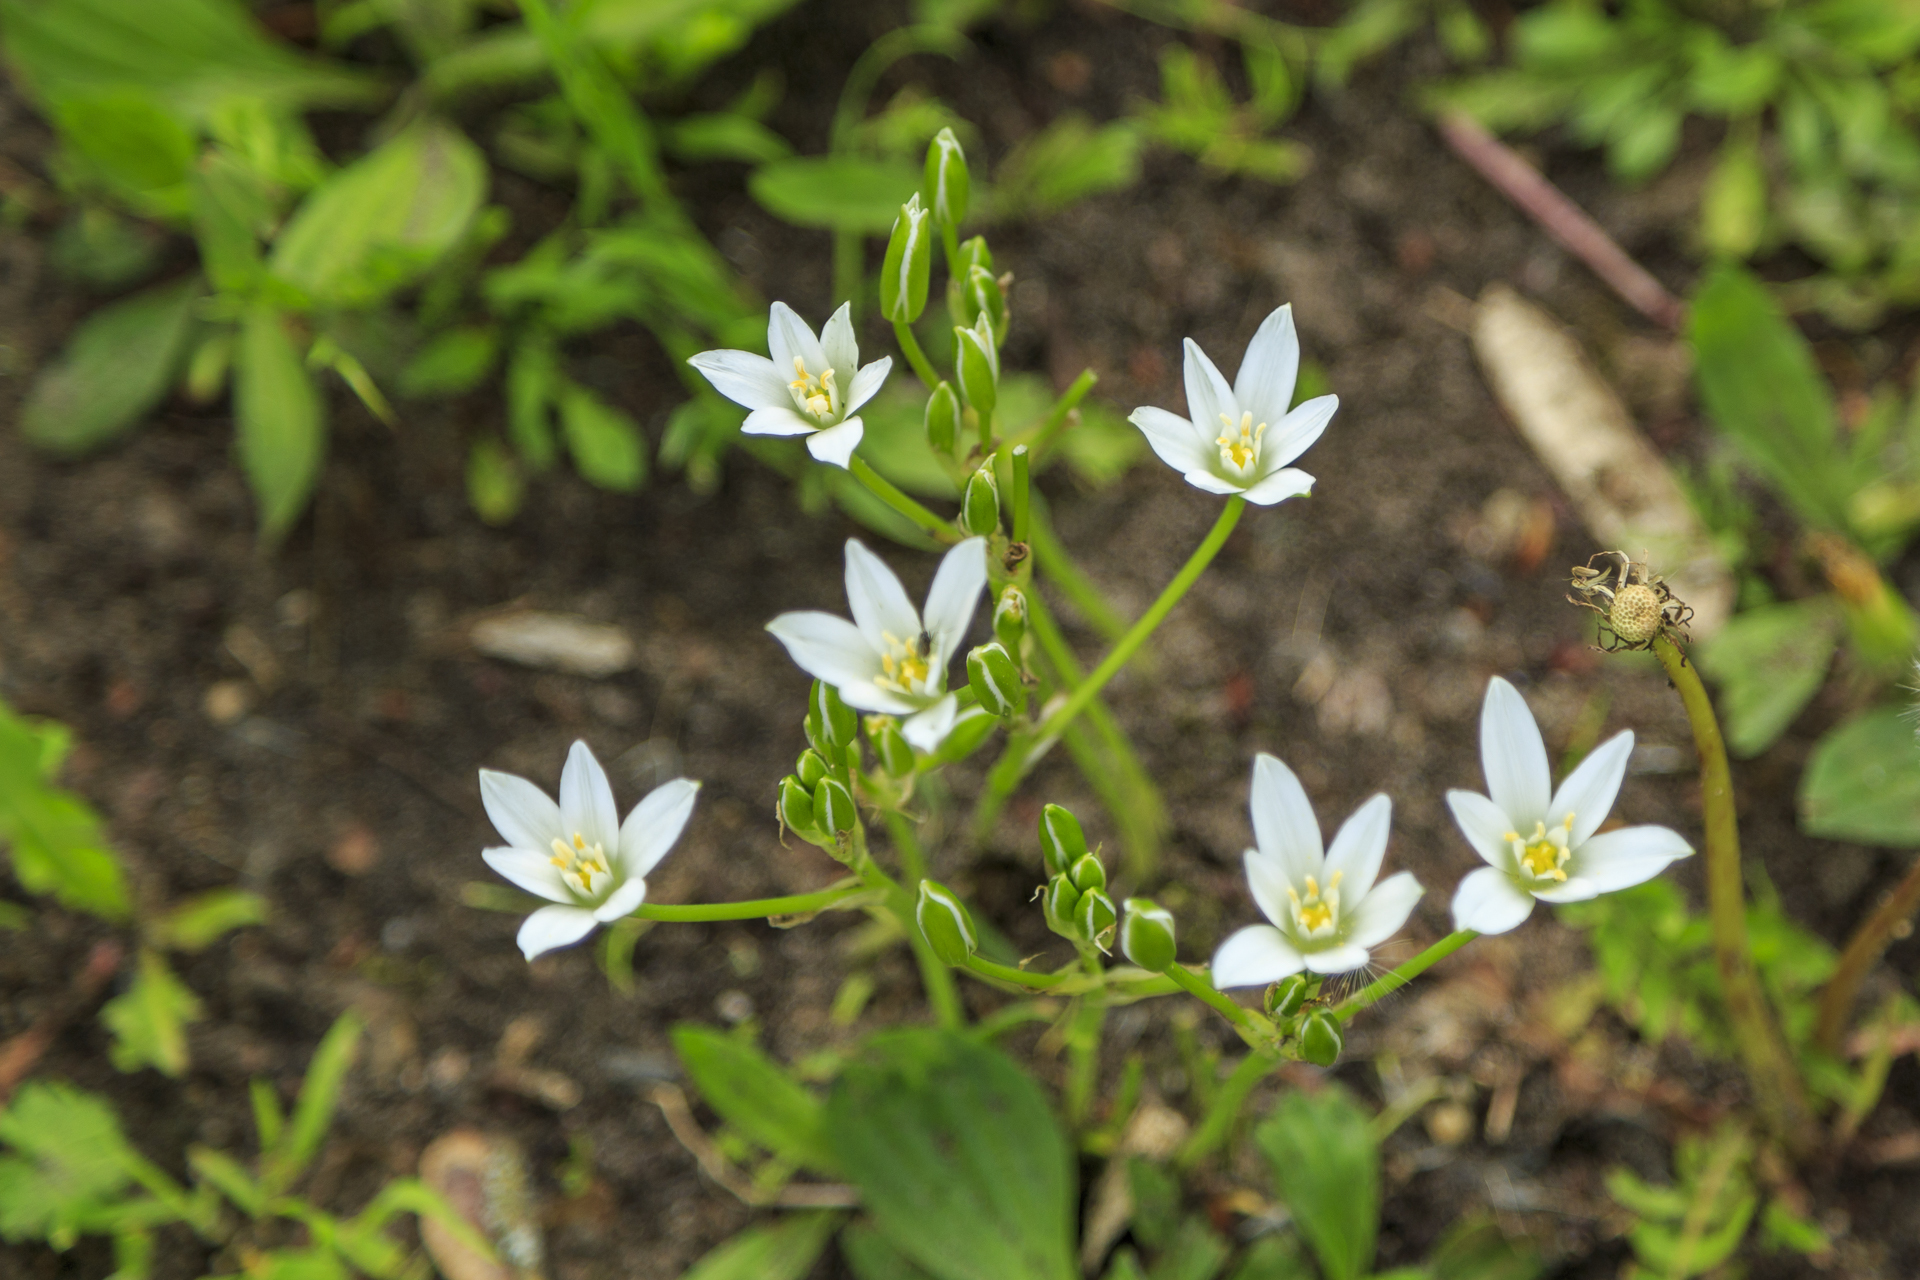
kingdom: Plantae
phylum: Tracheophyta
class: Liliopsida
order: Asparagales
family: Asparagaceae
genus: Ornithogalum
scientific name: Ornithogalum umbellatum
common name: Garden star-of-bethlehem
